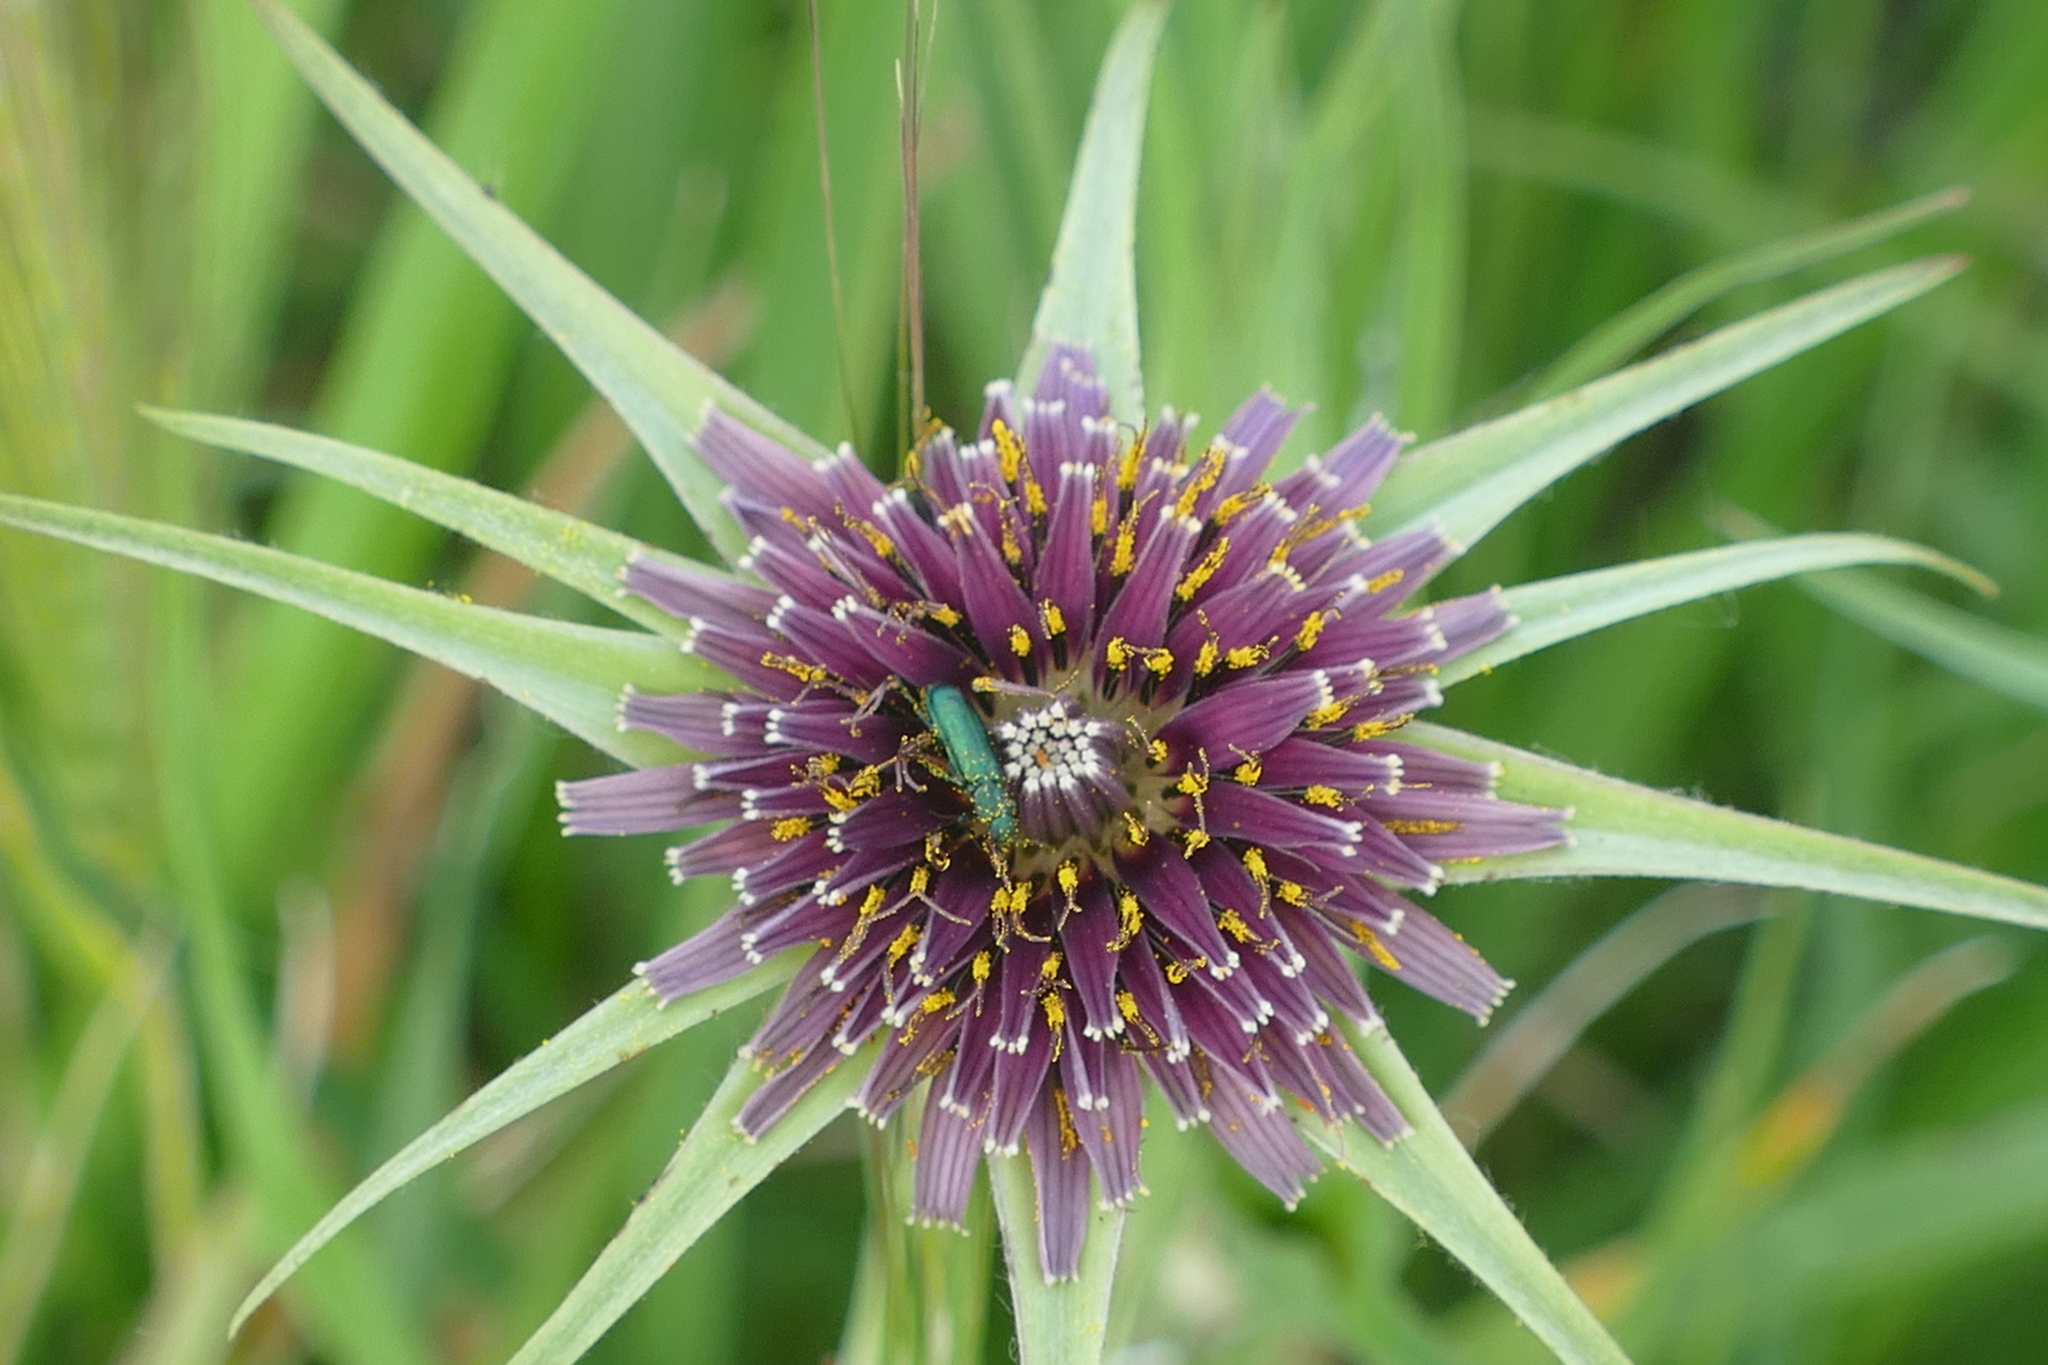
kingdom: Plantae
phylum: Tracheophyta
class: Magnoliopsida
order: Asterales
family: Asteraceae
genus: Tragopogon
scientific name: Tragopogon porrifolius
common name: Salsify
